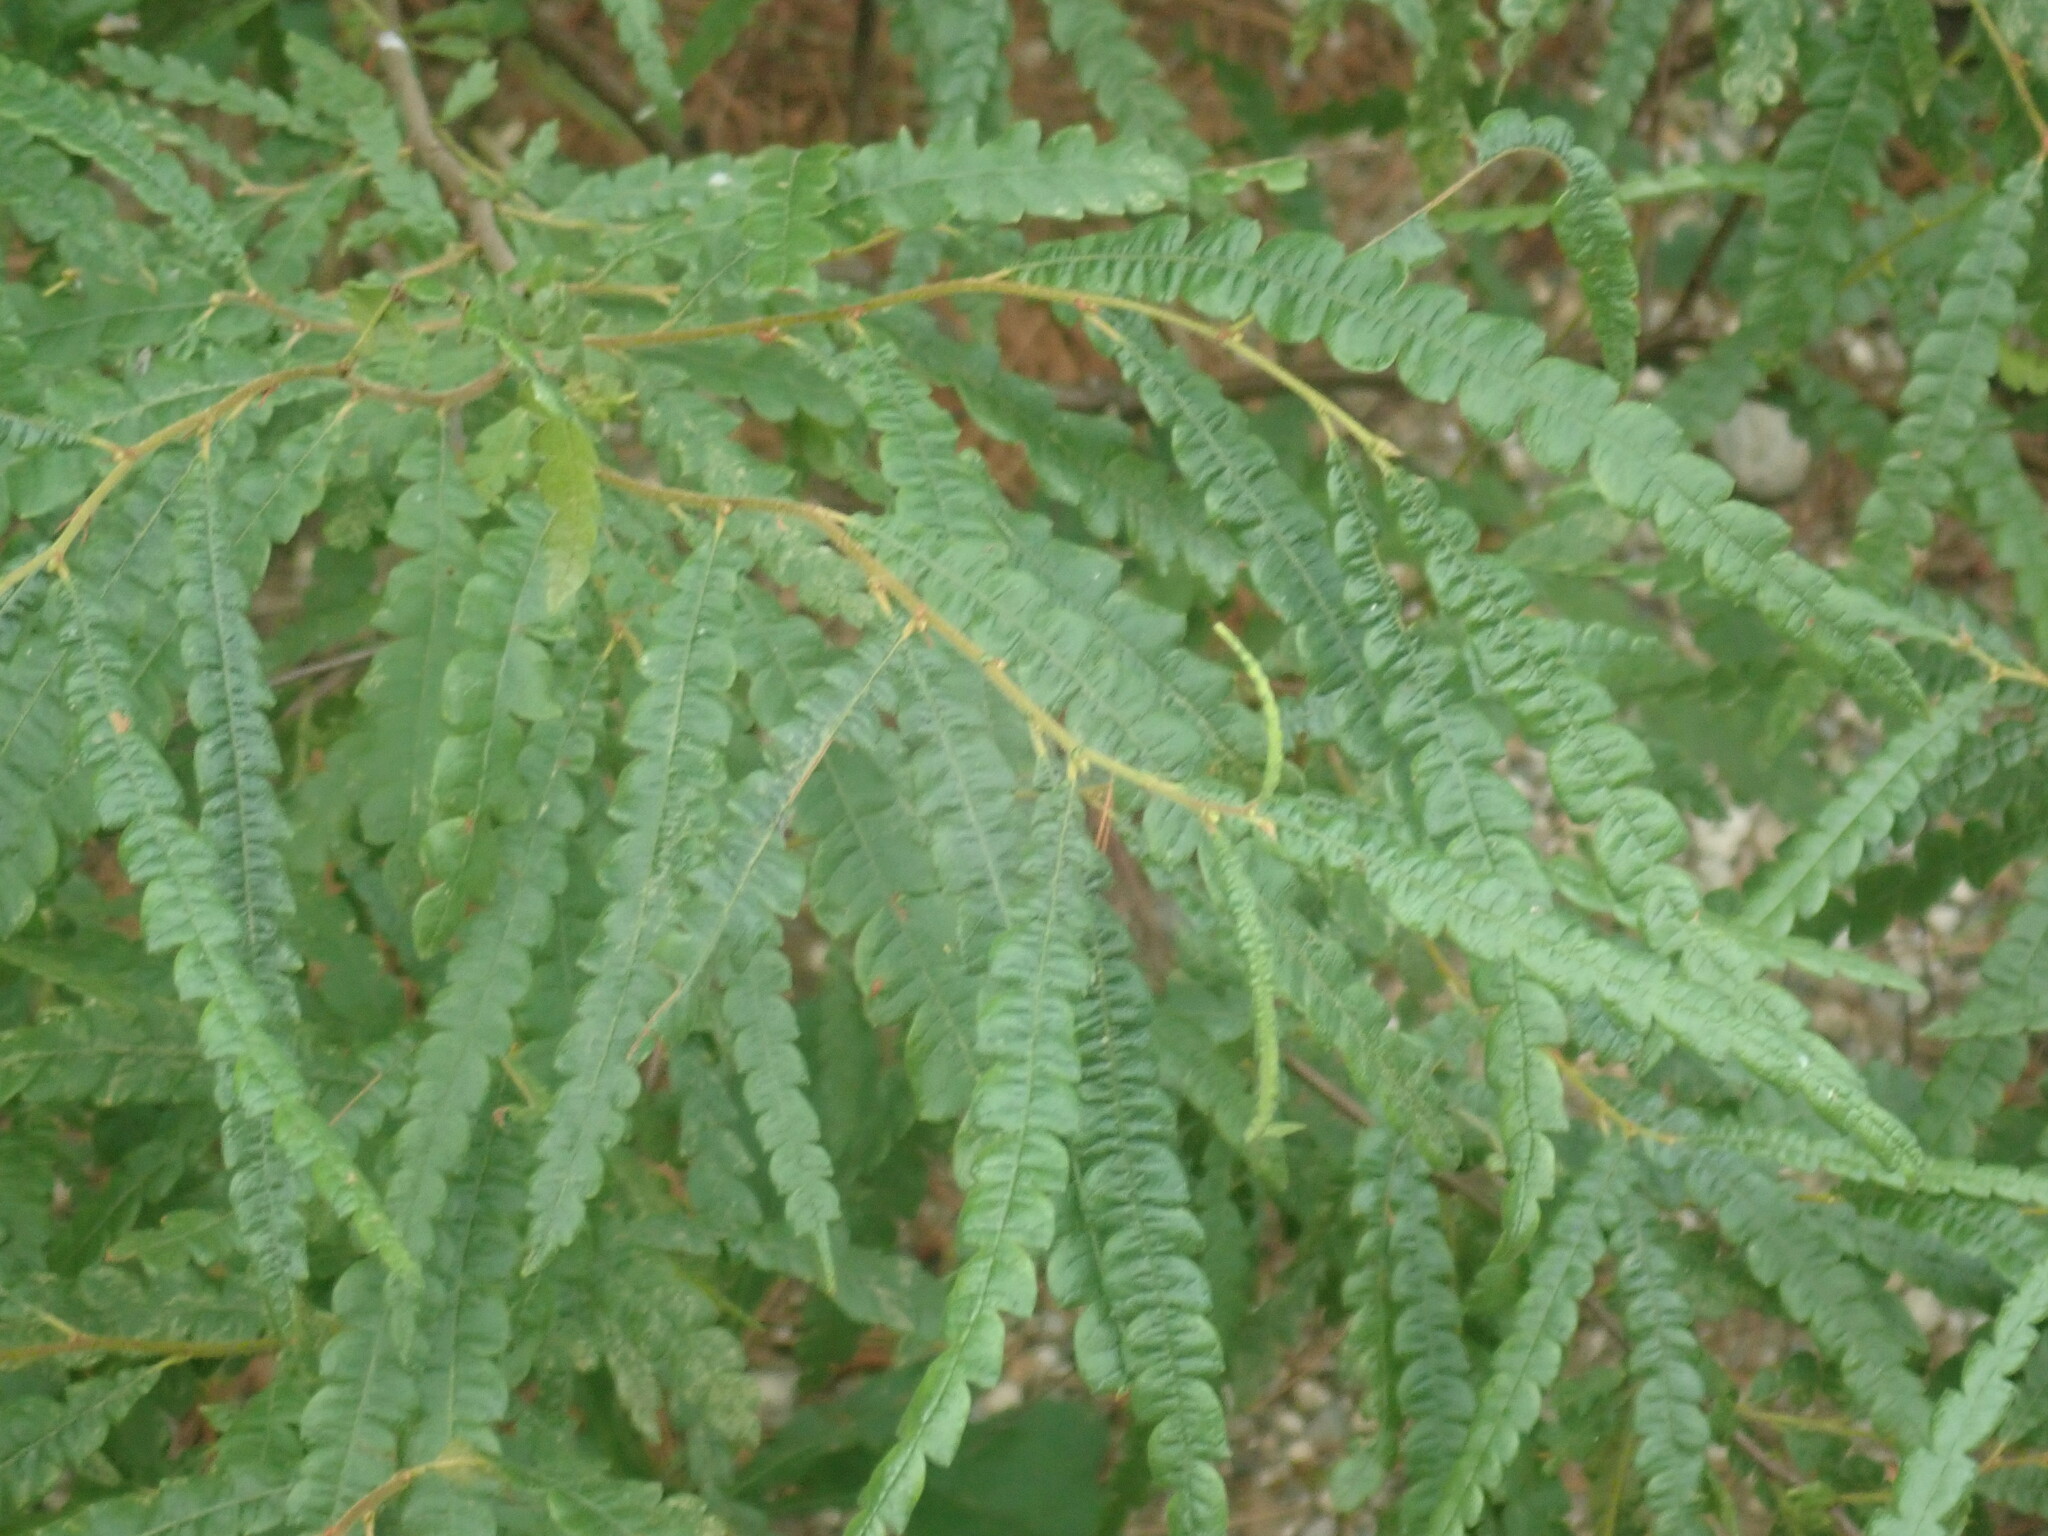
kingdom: Plantae
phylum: Tracheophyta
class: Magnoliopsida
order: Fagales
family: Myricaceae
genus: Comptonia
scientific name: Comptonia peregrina
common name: Sweet-fern
